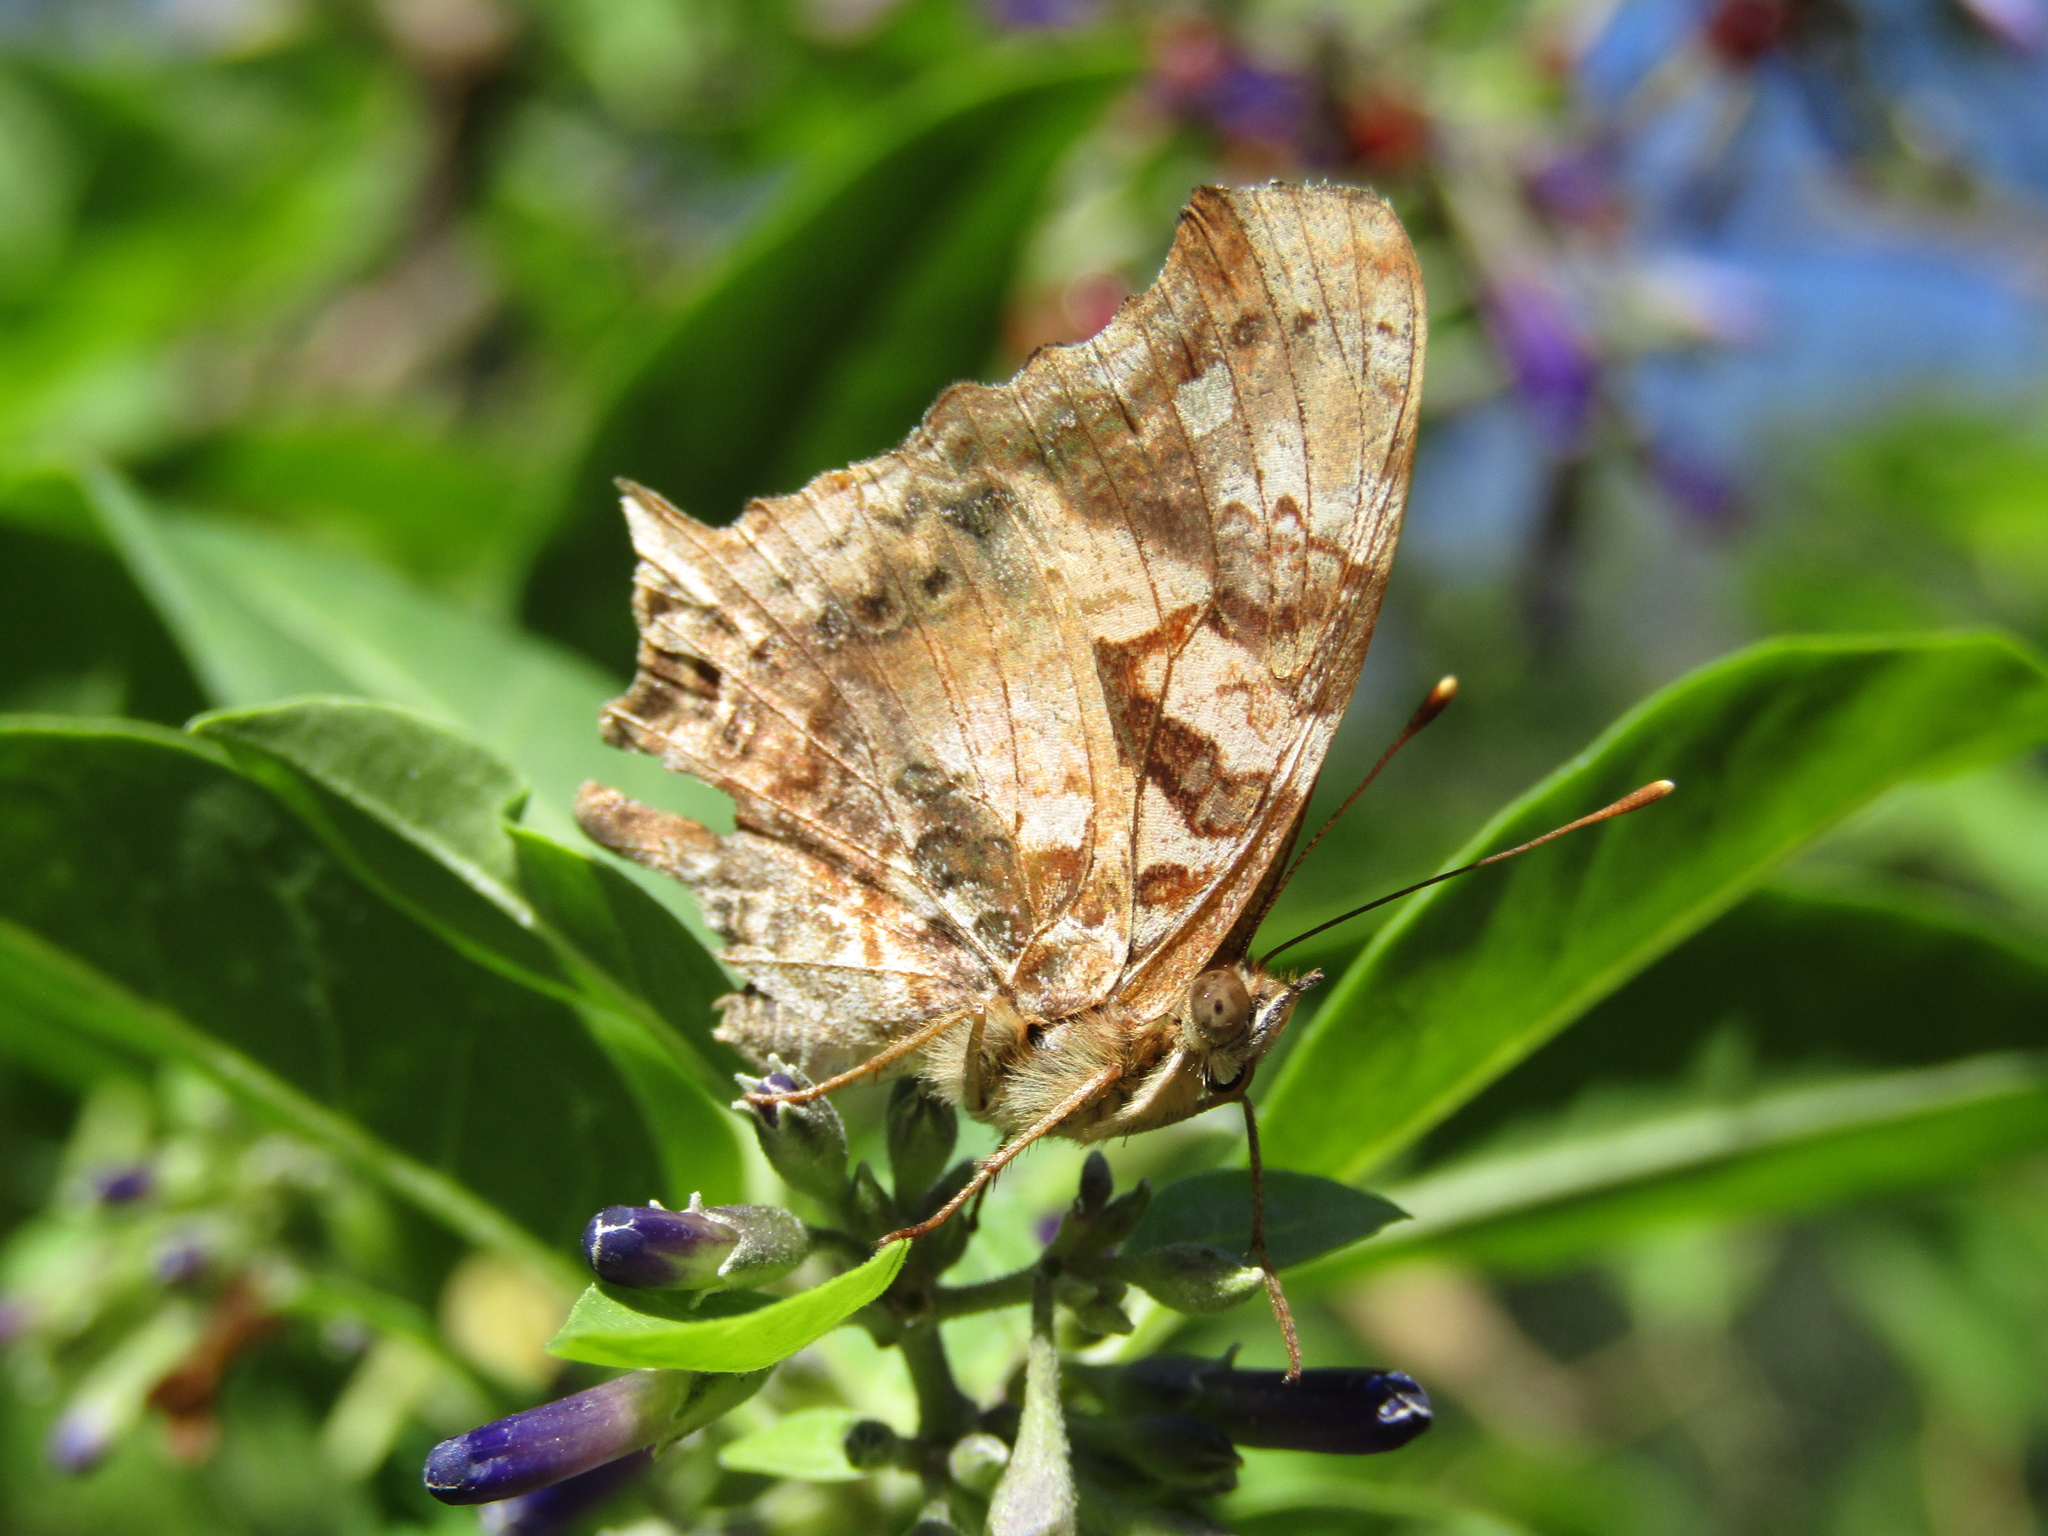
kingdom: Animalia
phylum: Arthropoda
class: Insecta
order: Lepidoptera
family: Nymphalidae
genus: Hypanartia
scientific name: Hypanartia bella
